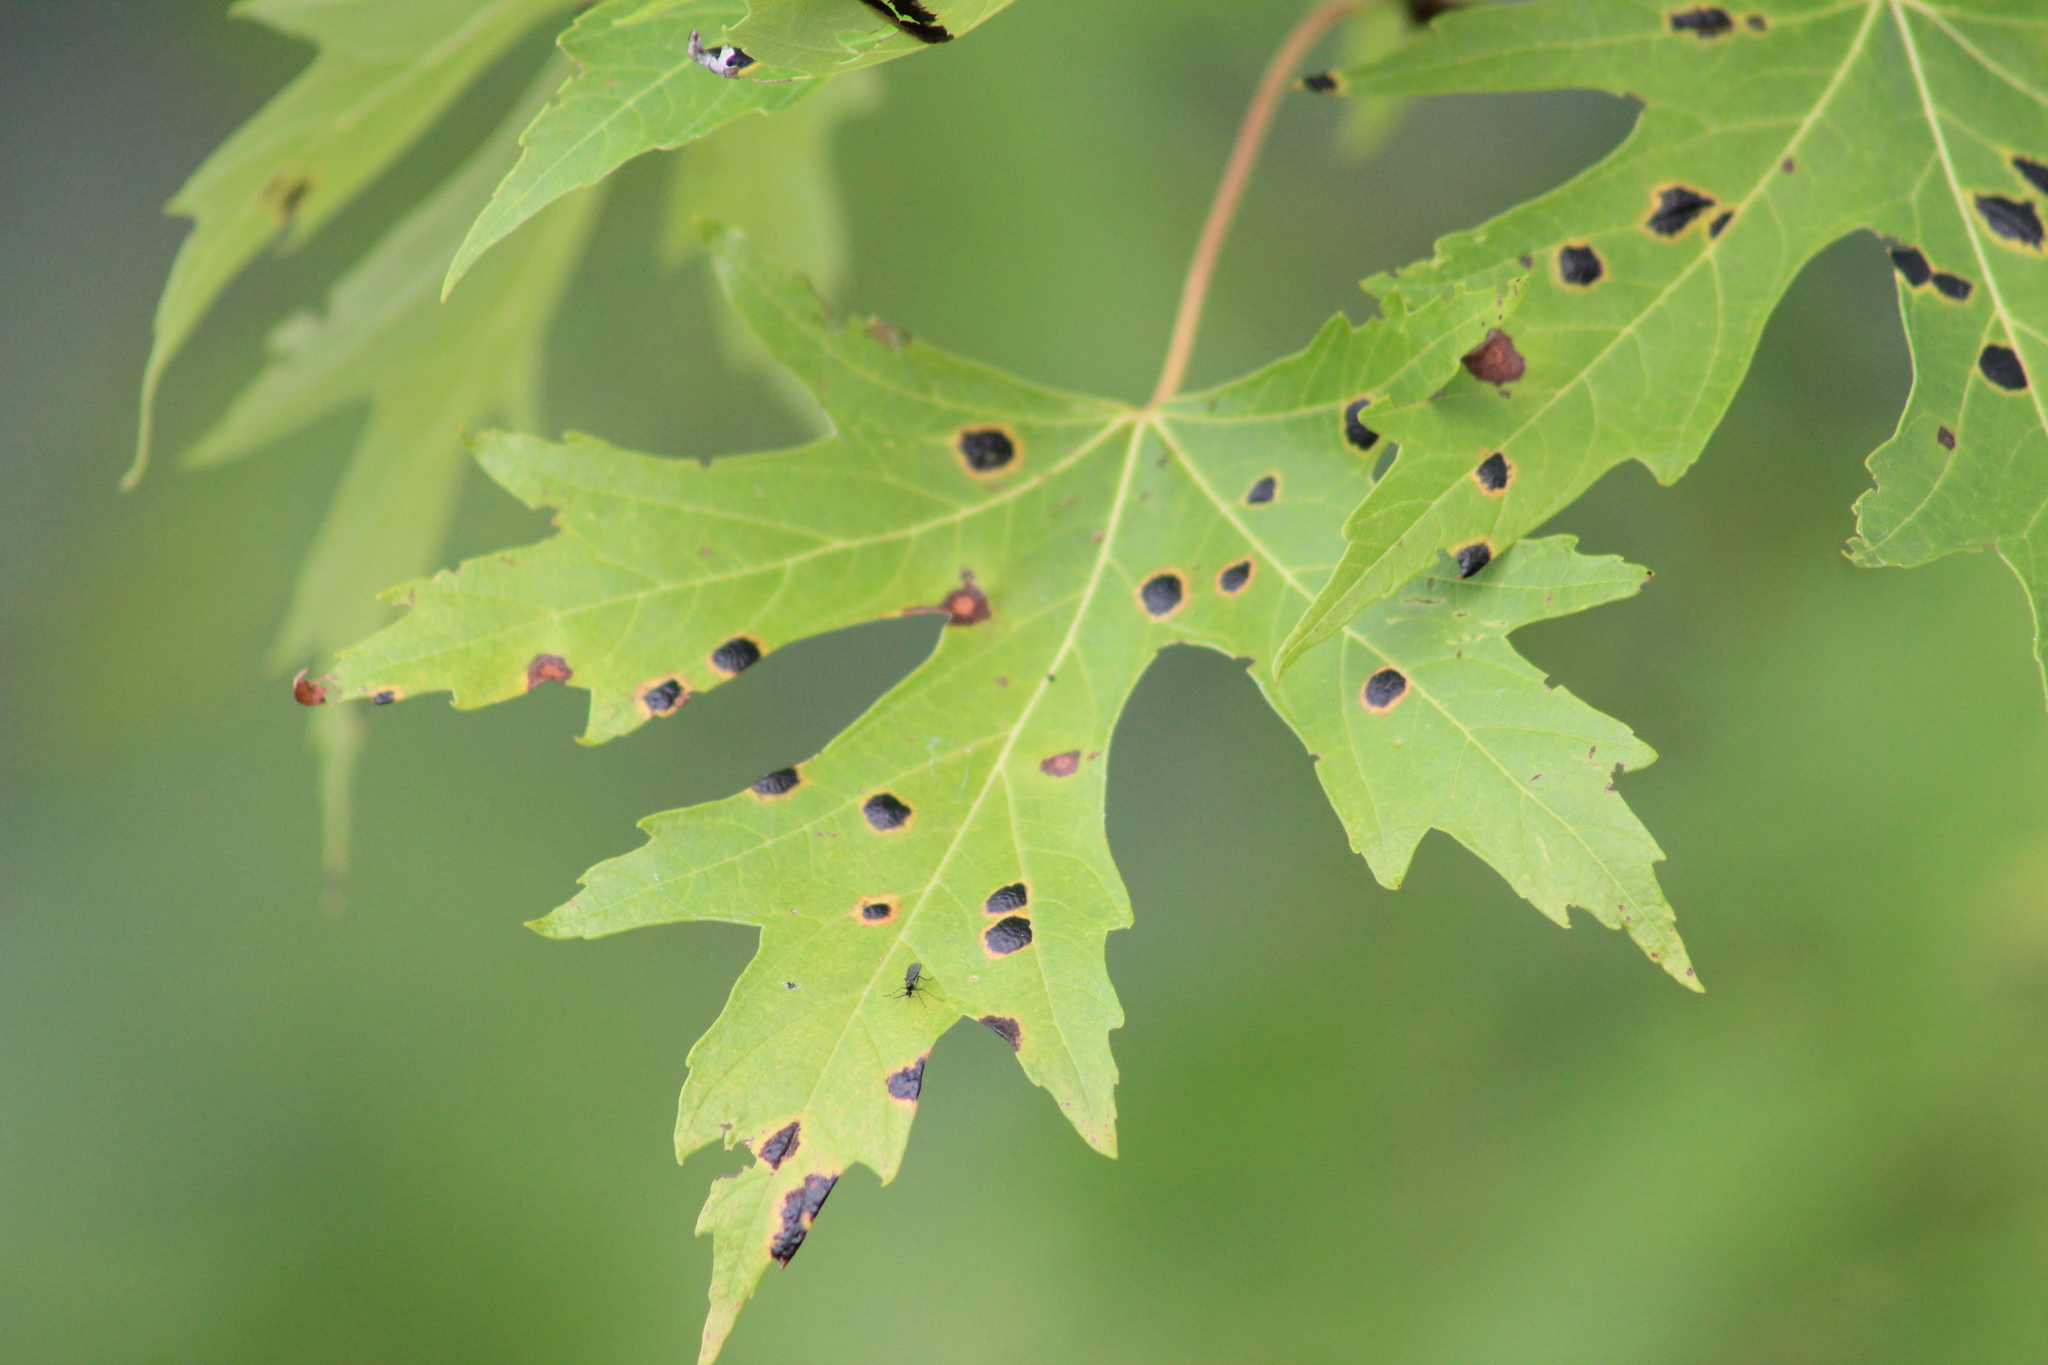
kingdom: Fungi
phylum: Ascomycota
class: Leotiomycetes
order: Rhytismatales
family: Rhytismataceae
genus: Rhytisma
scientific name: Rhytisma americanum
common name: American tar spot
